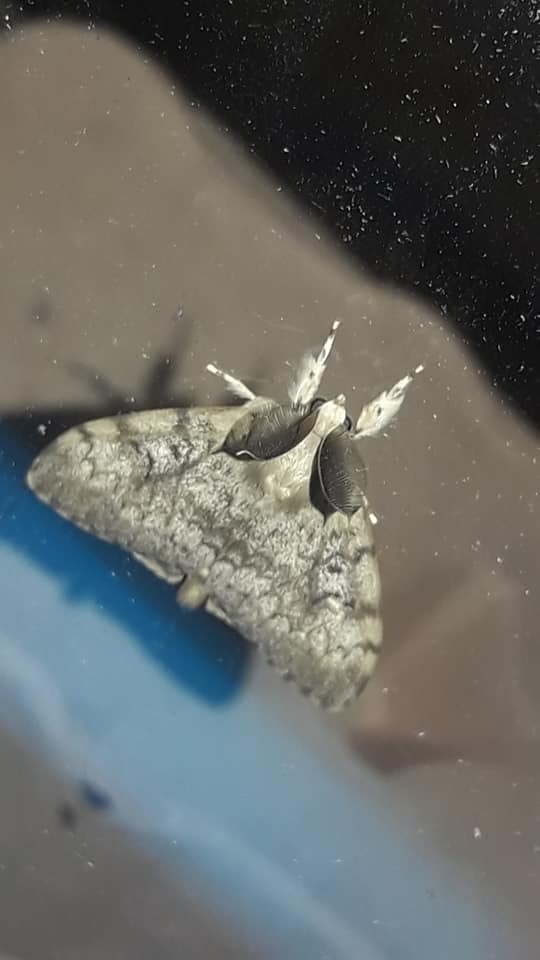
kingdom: Animalia
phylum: Arthropoda
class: Insecta
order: Lepidoptera
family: Erebidae
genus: Lymantria
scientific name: Lymantria dispar
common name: Gypsy moth
